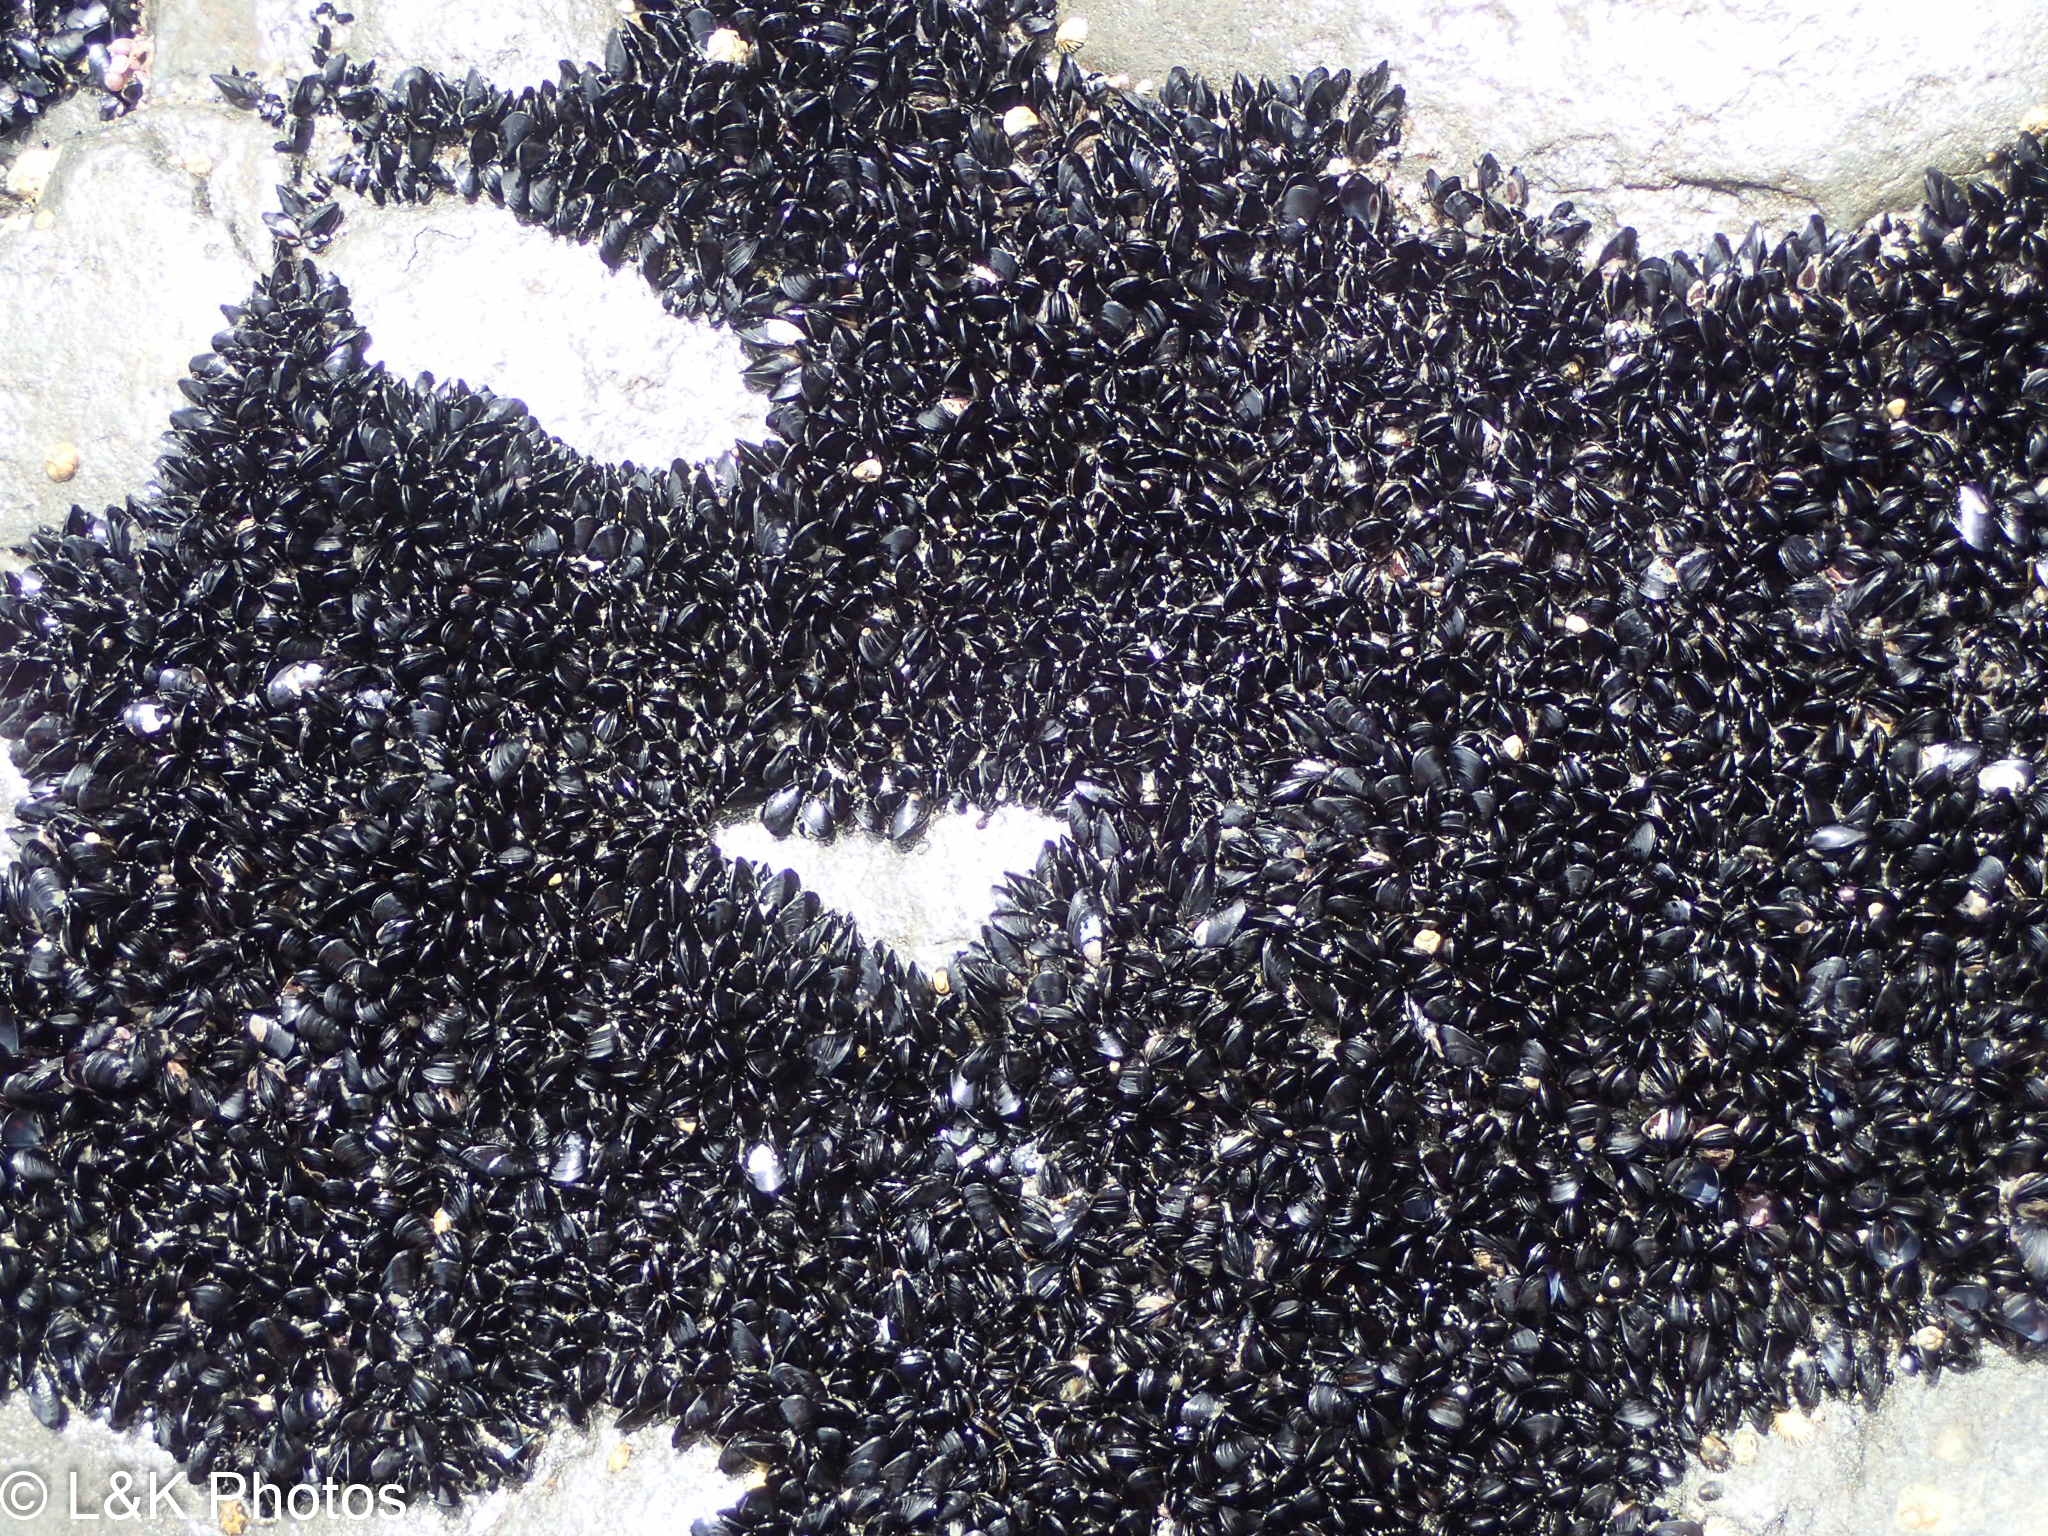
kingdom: Animalia
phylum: Mollusca
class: Bivalvia
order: Mytilida
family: Mytilidae
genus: Xenostrobus
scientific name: Xenostrobus pulex
